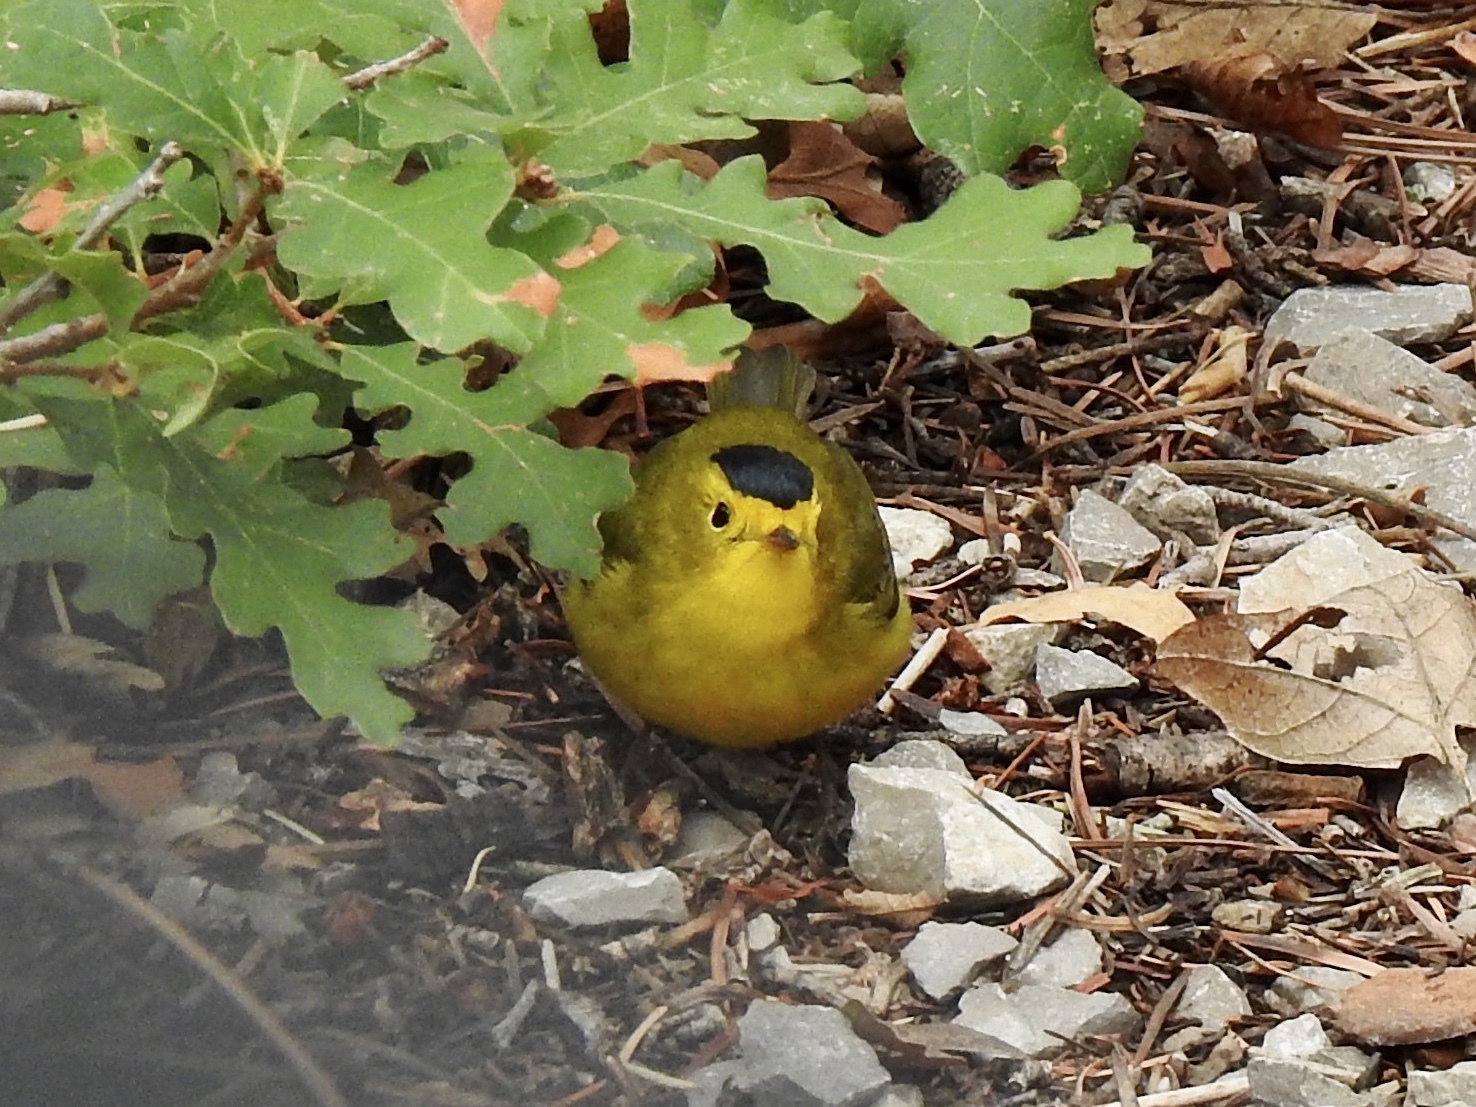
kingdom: Animalia
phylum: Chordata
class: Aves
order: Passeriformes
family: Parulidae
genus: Cardellina
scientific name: Cardellina pusilla
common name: Wilson's warbler
